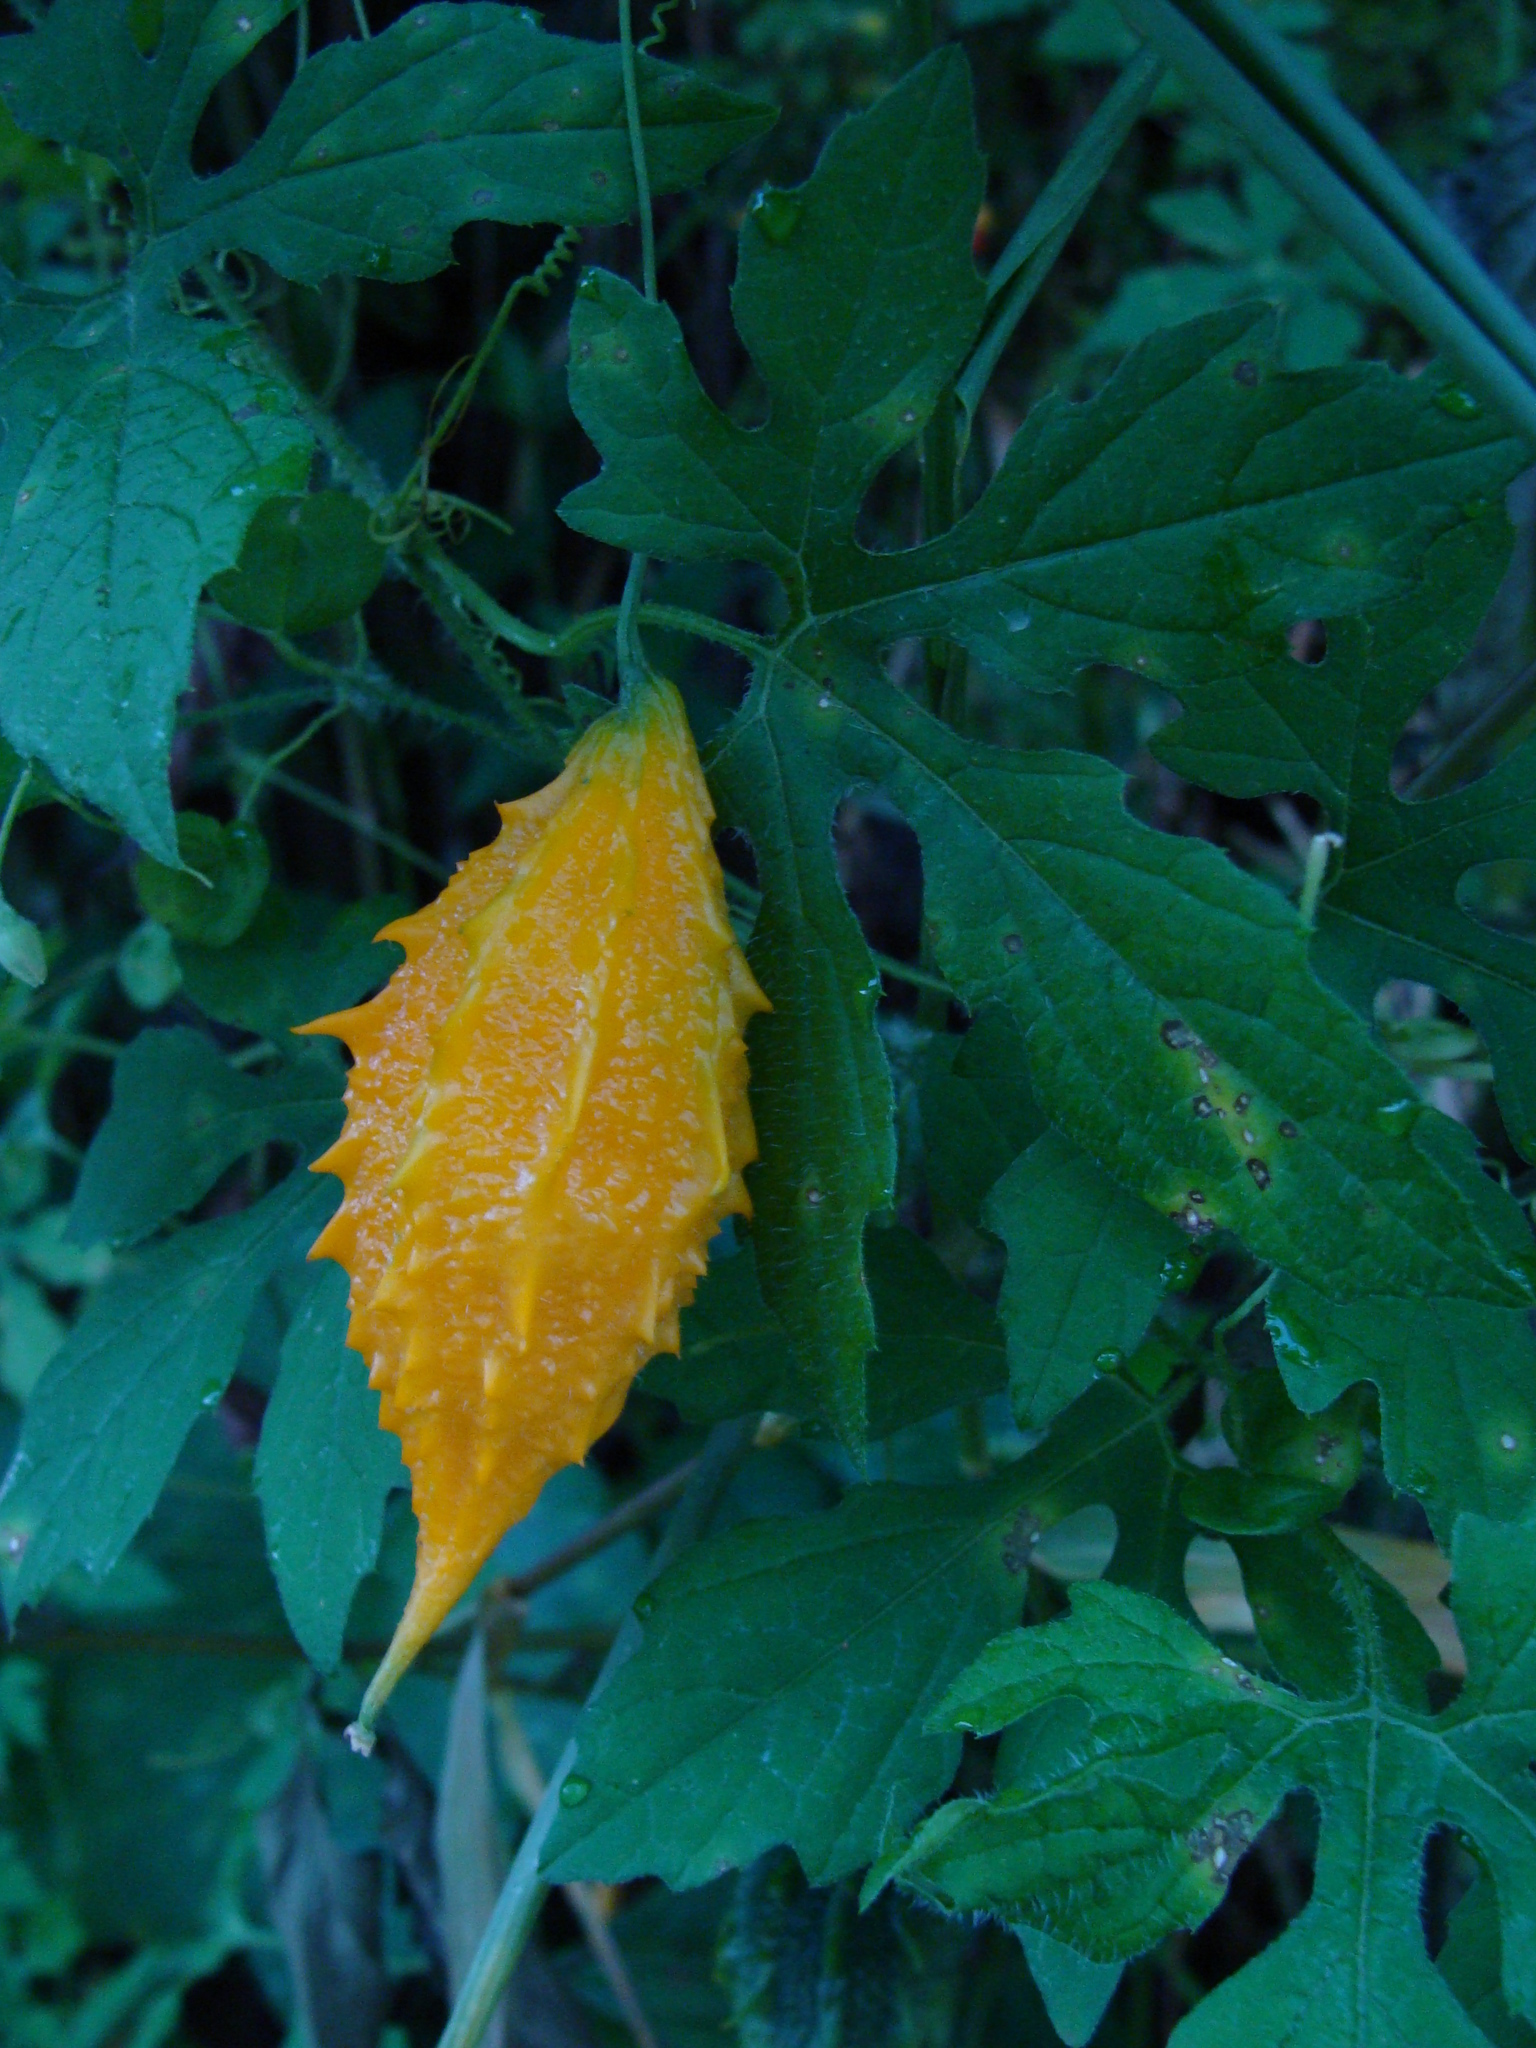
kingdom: Plantae
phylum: Tracheophyta
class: Magnoliopsida
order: Cucurbitales
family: Cucurbitaceae
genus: Momordica
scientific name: Momordica charantia
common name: Balsampear
